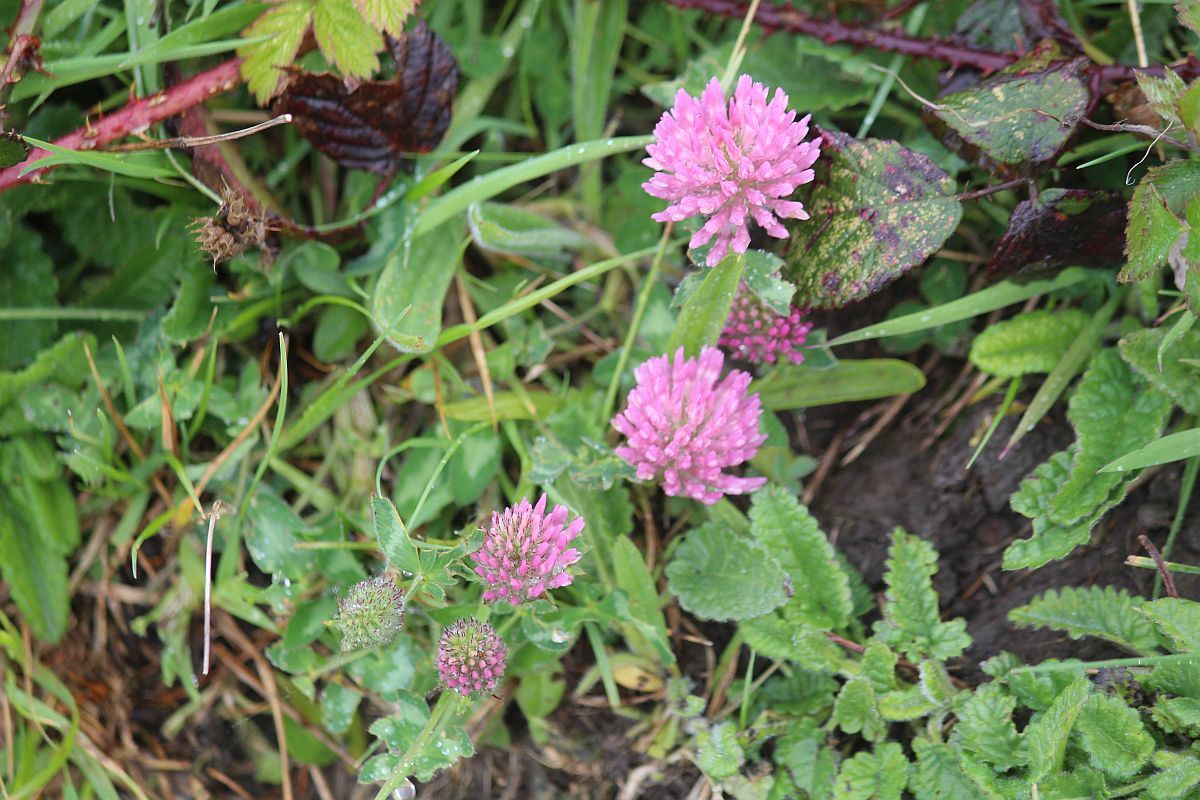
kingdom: Plantae
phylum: Tracheophyta
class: Magnoliopsida
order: Fabales
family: Fabaceae
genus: Trifolium
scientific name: Trifolium pratense
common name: Red clover
